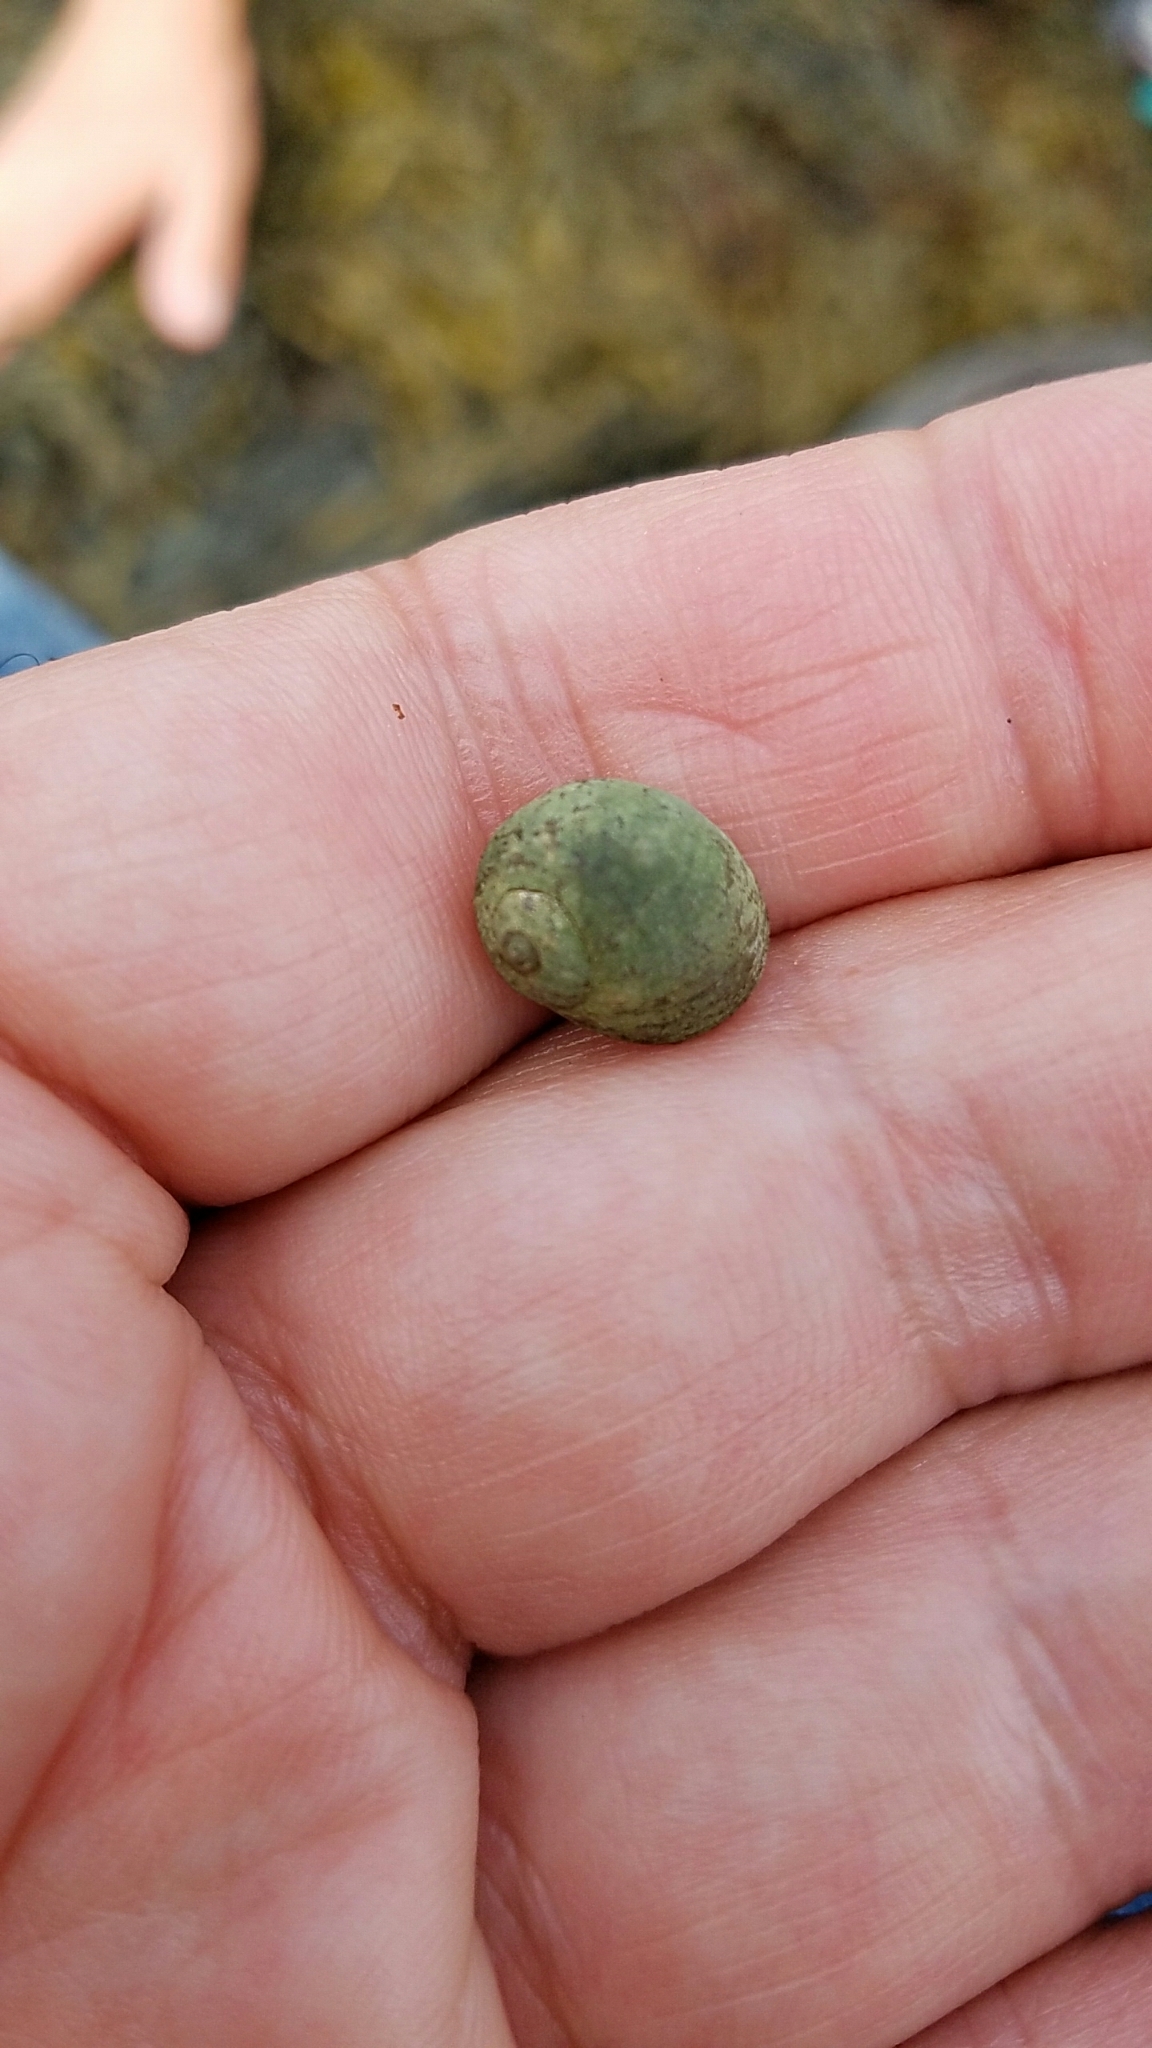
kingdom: Animalia
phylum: Mollusca
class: Gastropoda
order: Littorinimorpha
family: Littorinidae
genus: Littorina
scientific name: Littorina obtusata
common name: Flat periwinkle
